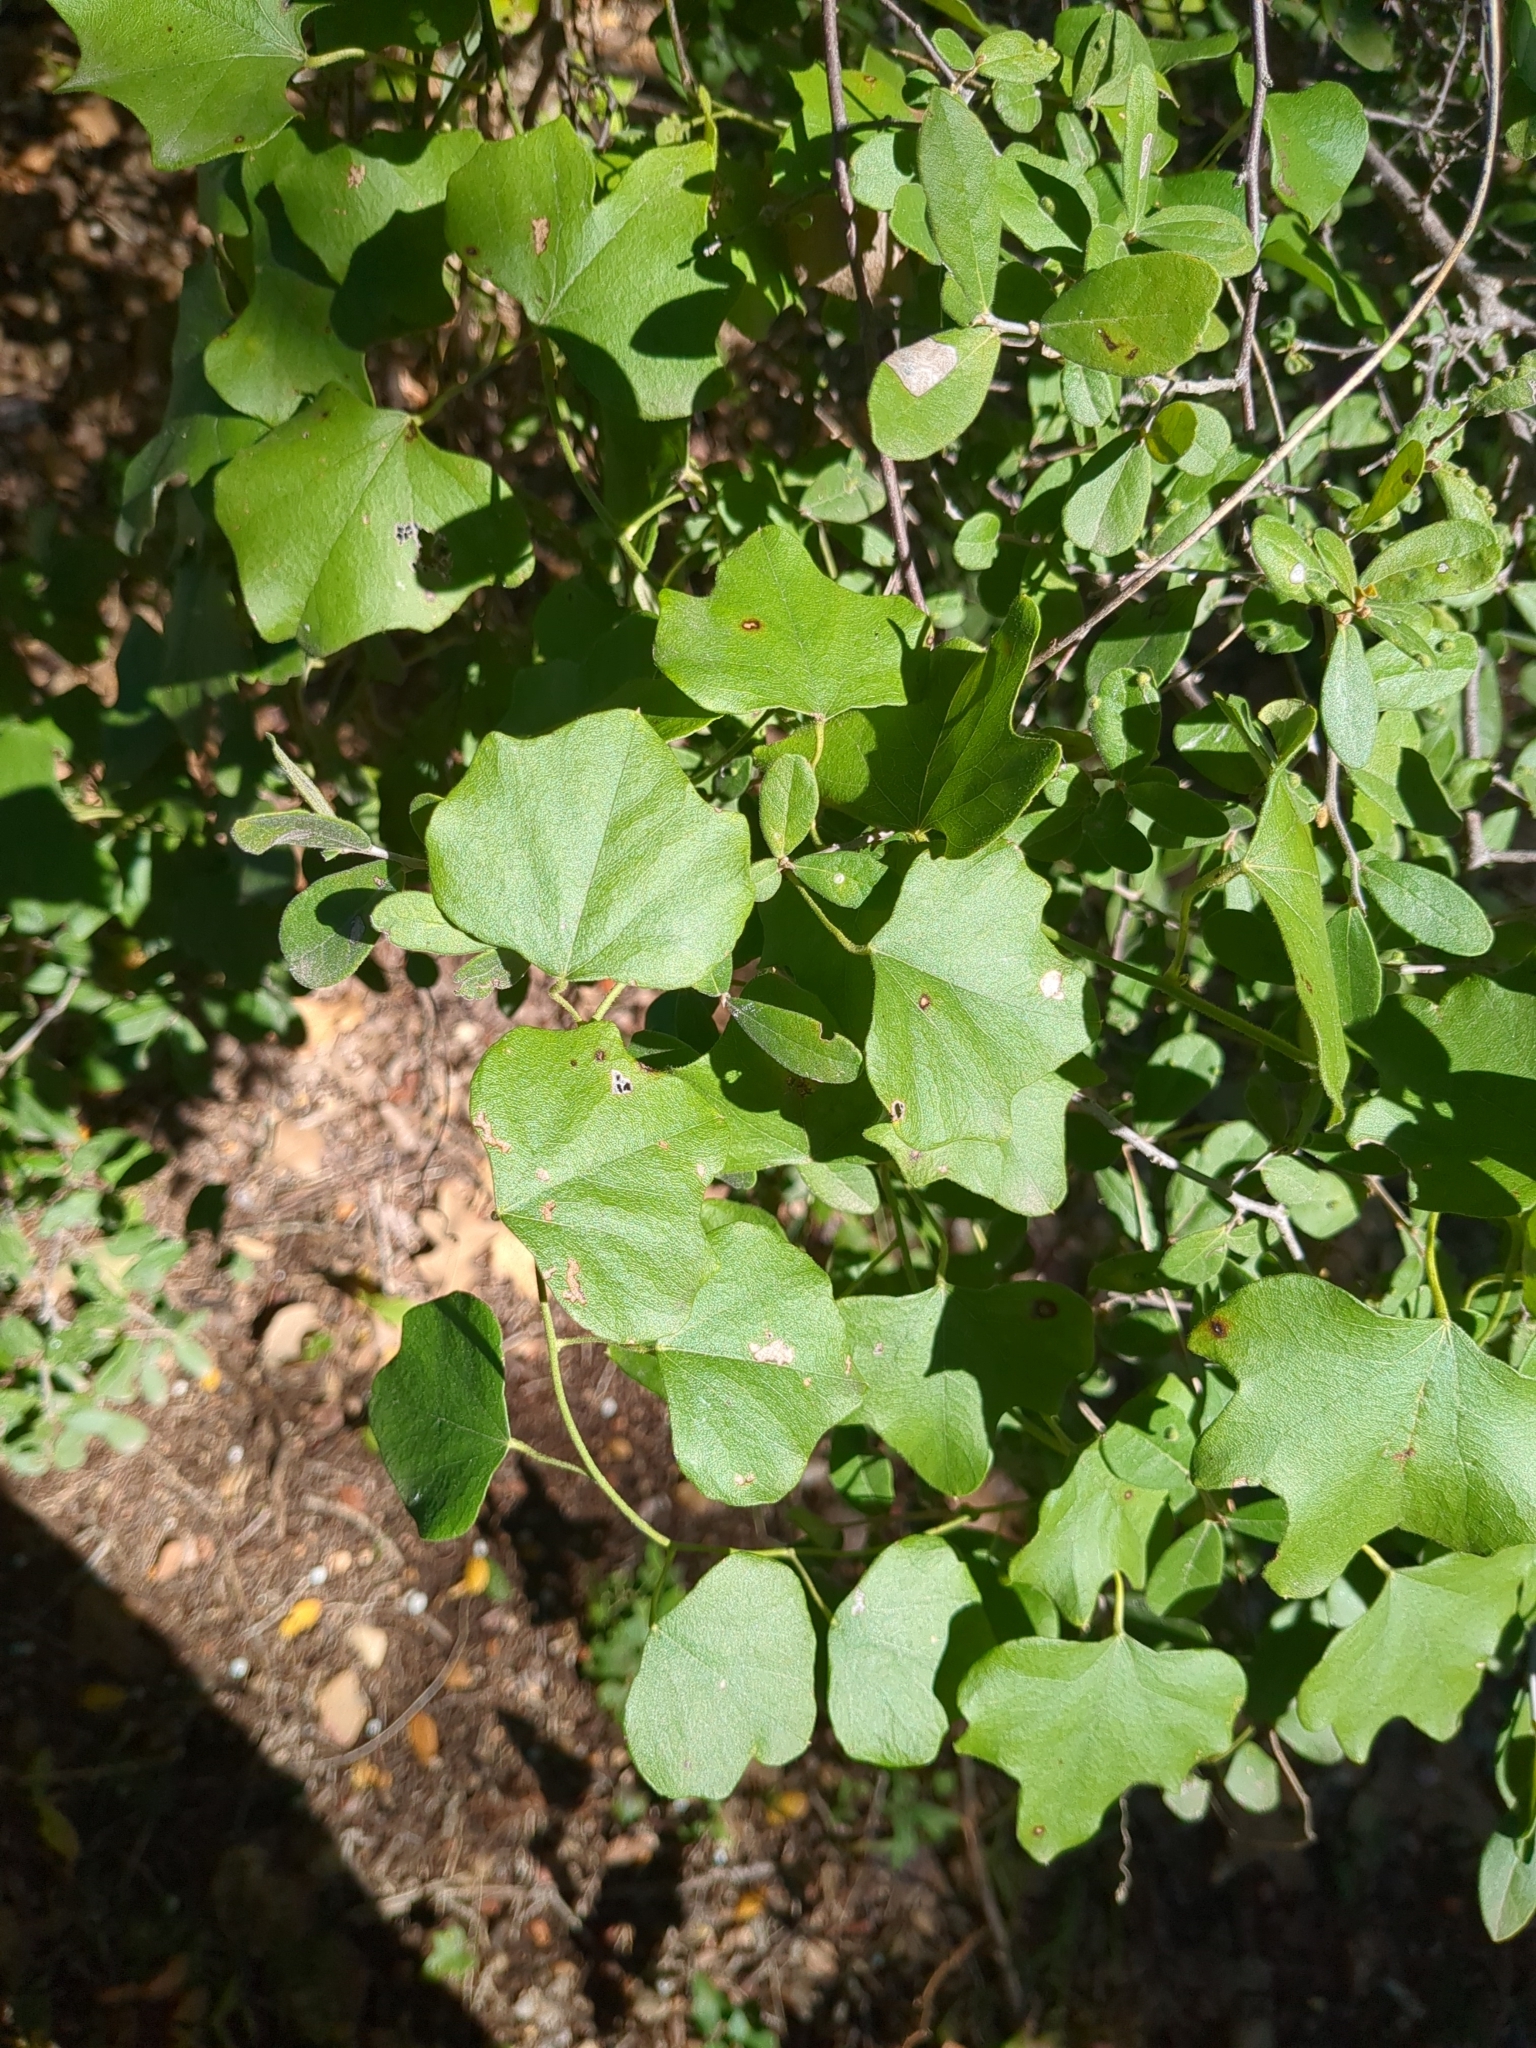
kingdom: Plantae
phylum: Tracheophyta
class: Magnoliopsida
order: Ranunculales
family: Menispermaceae
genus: Cocculus
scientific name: Cocculus carolinus
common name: Carolina moonseed
